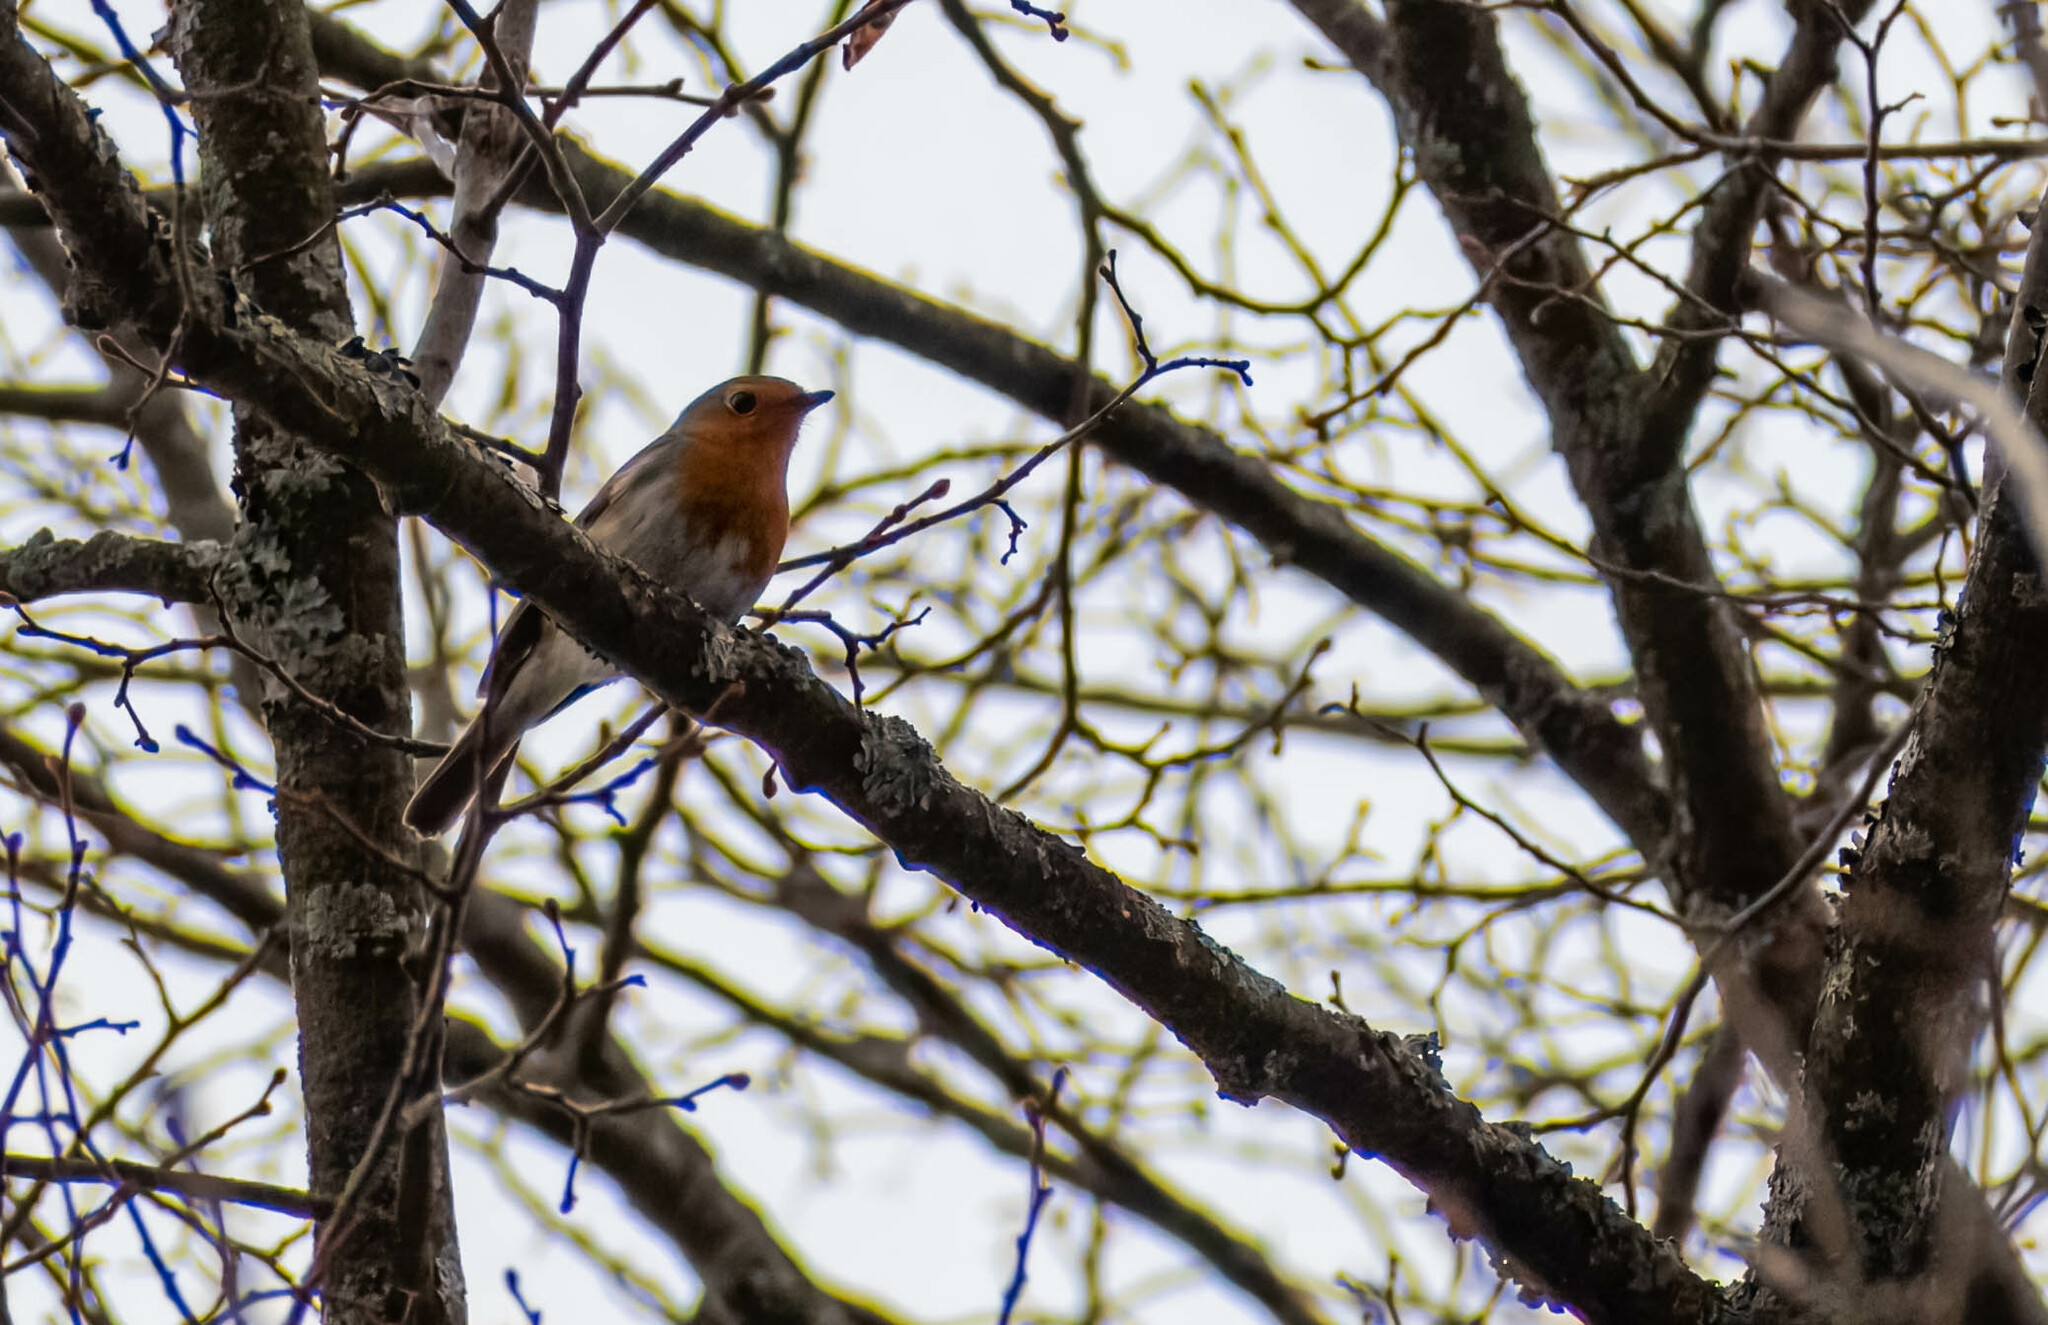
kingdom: Animalia
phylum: Chordata
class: Aves
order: Passeriformes
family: Muscicapidae
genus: Erithacus
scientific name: Erithacus rubecula
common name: European robin
